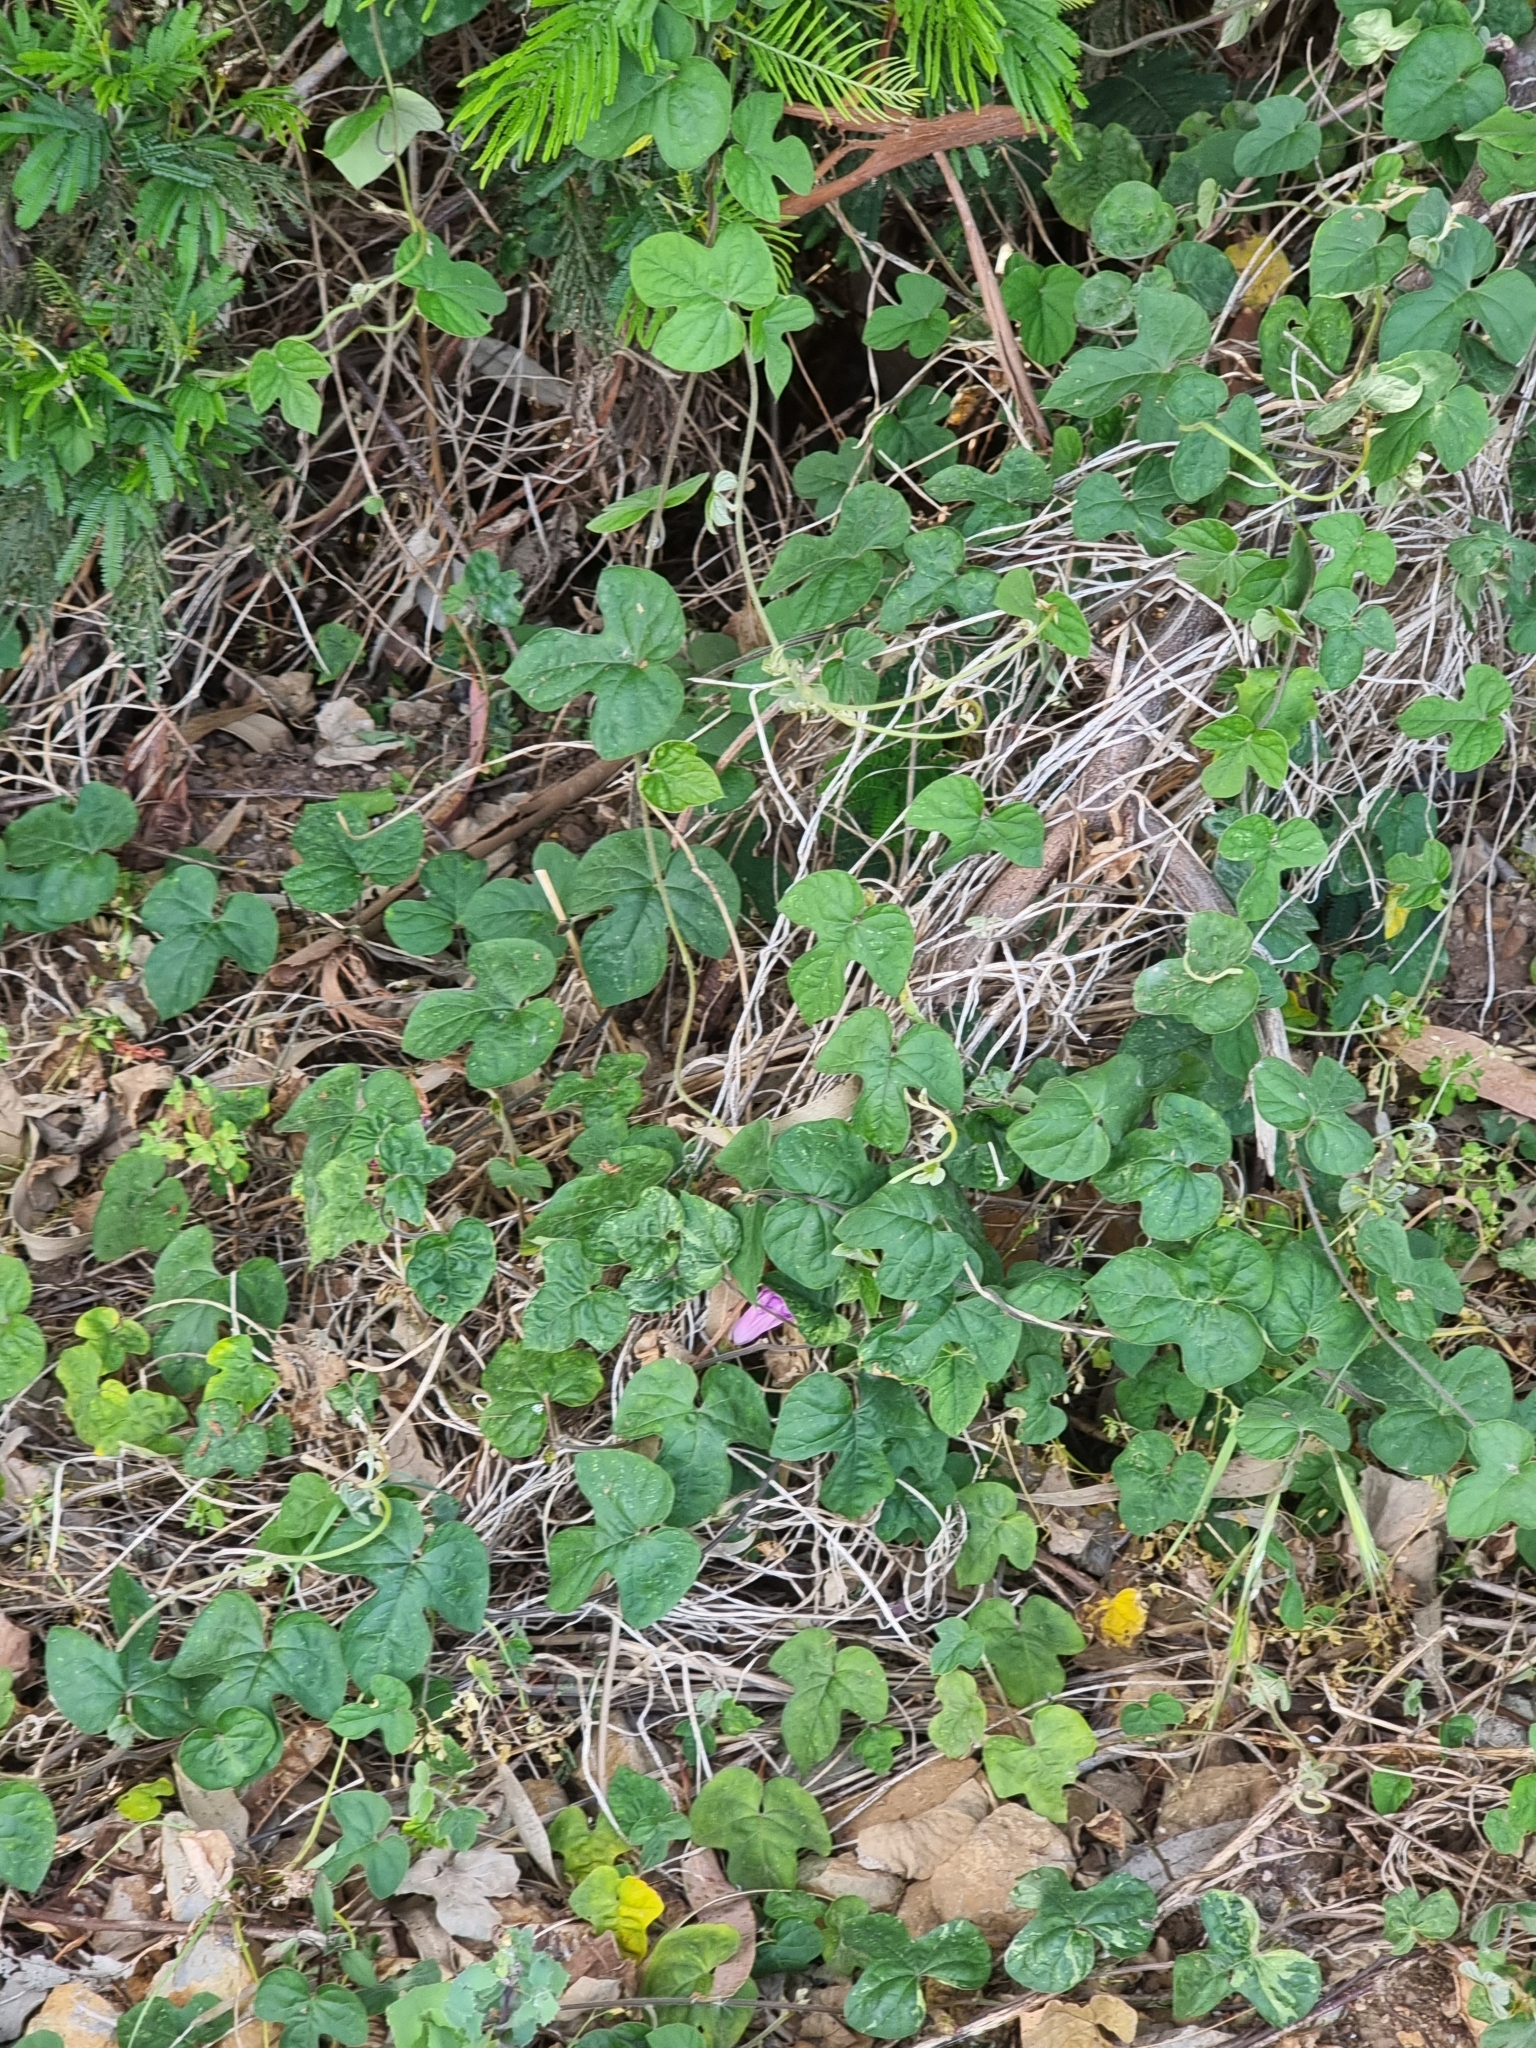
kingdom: Plantae
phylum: Tracheophyta
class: Magnoliopsida
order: Solanales
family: Convolvulaceae
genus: Ipomoea
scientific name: Ipomoea indica
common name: Blue dawnflower
